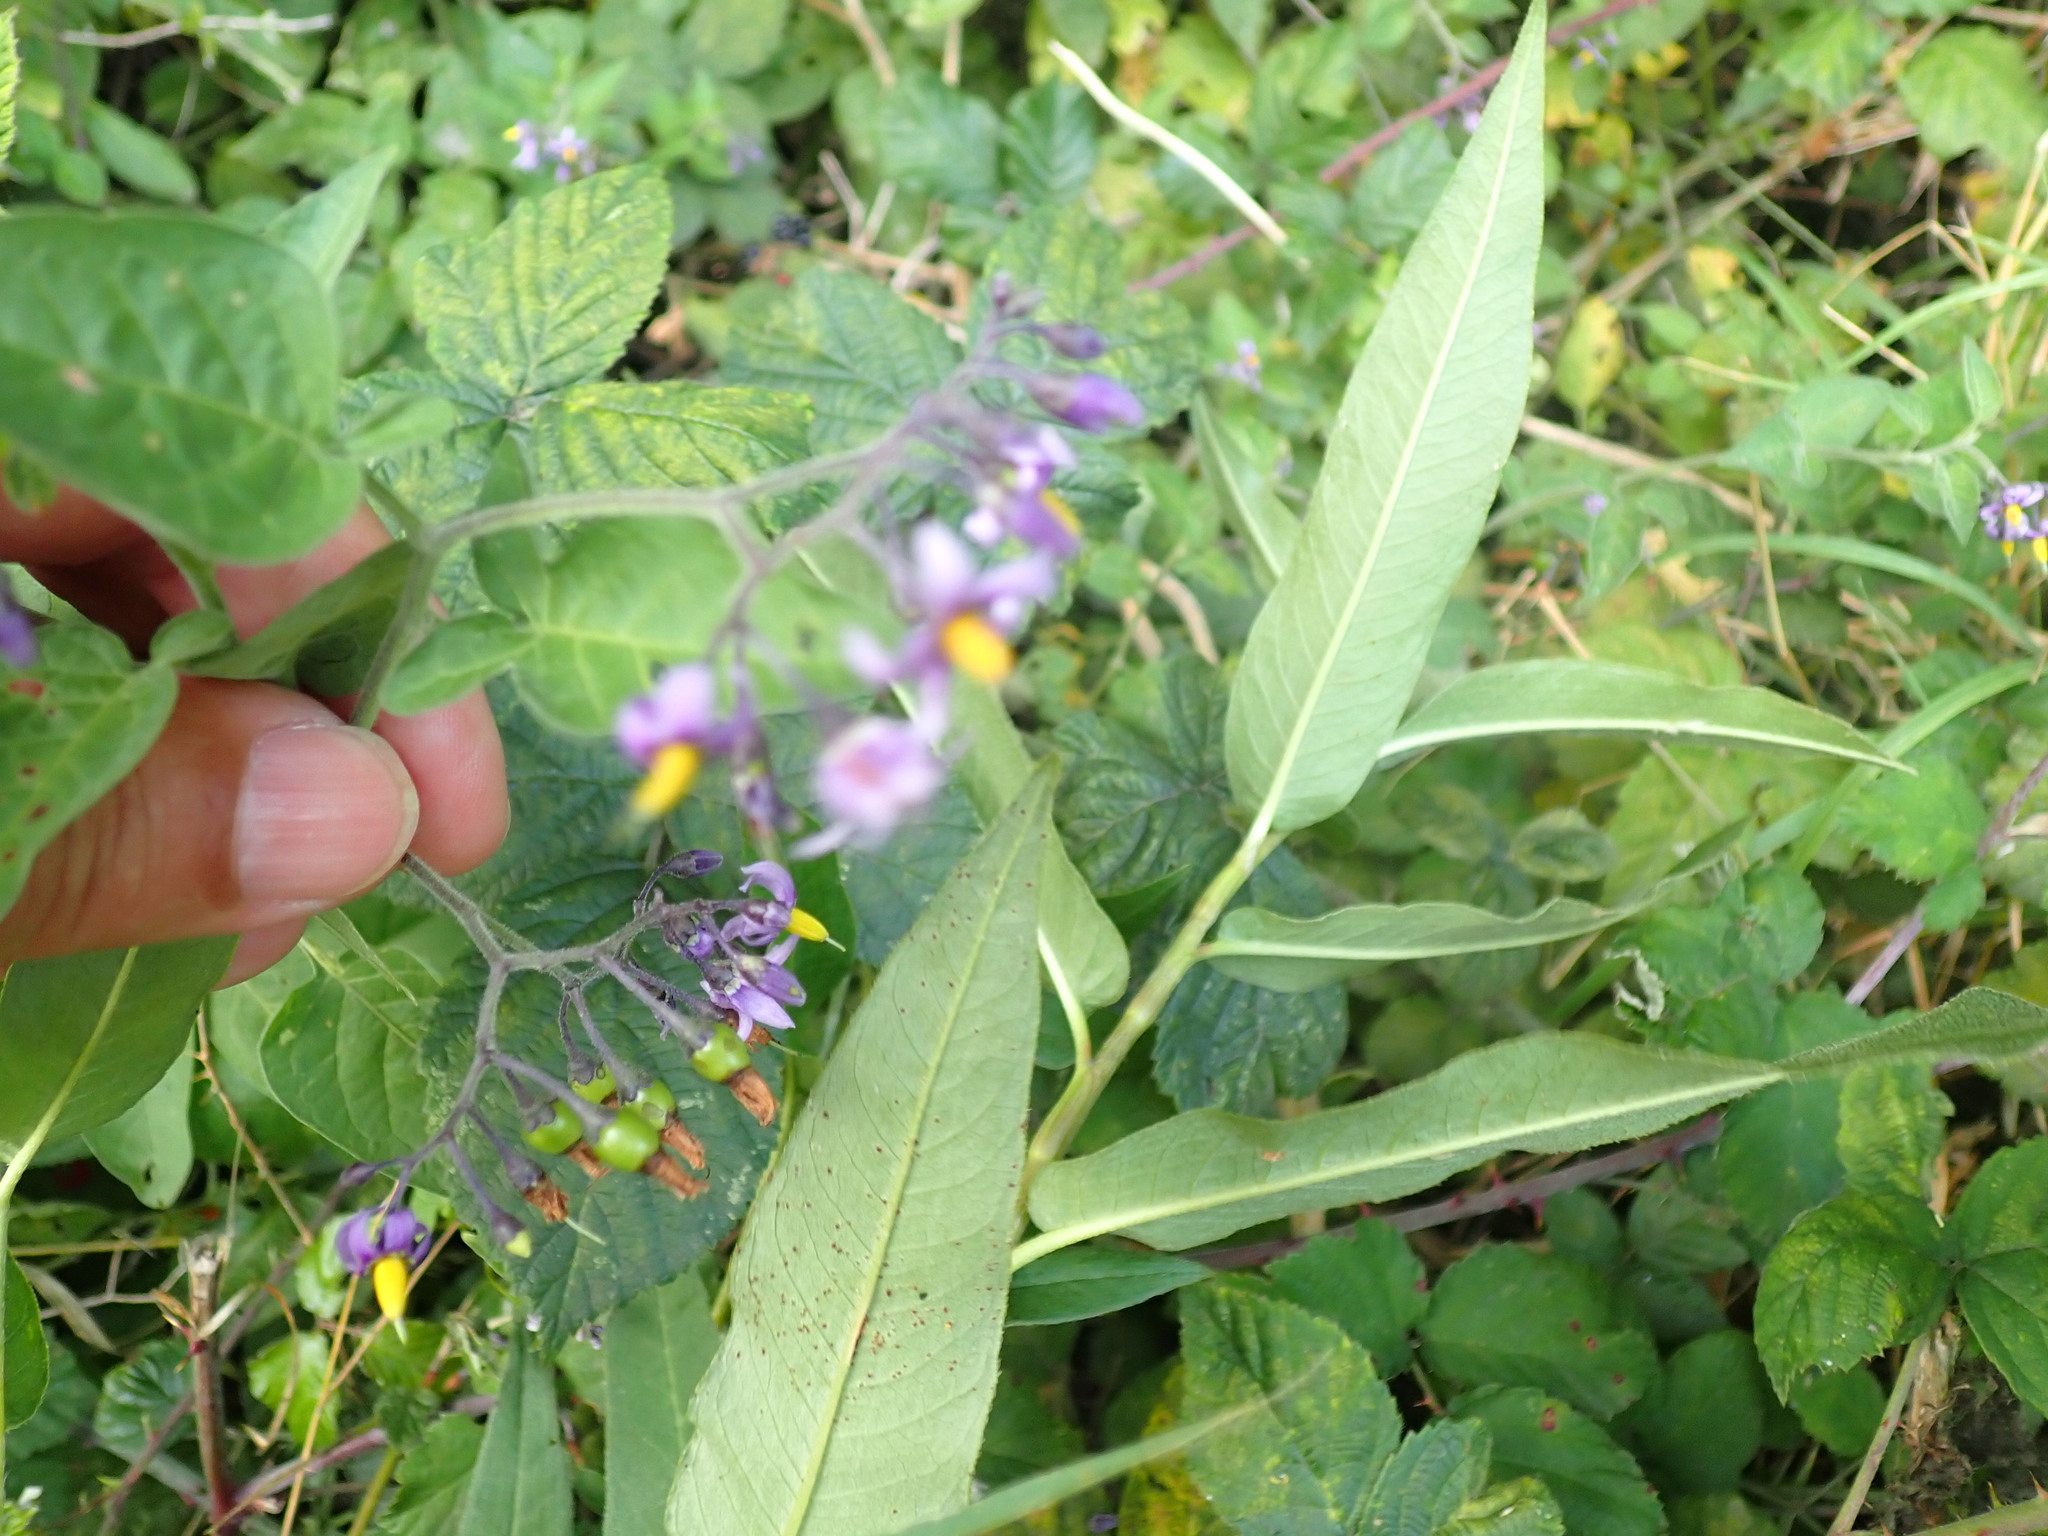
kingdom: Plantae
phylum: Tracheophyta
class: Magnoliopsida
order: Solanales
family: Solanaceae
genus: Solanum
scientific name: Solanum dulcamara
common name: Climbing nightshade
